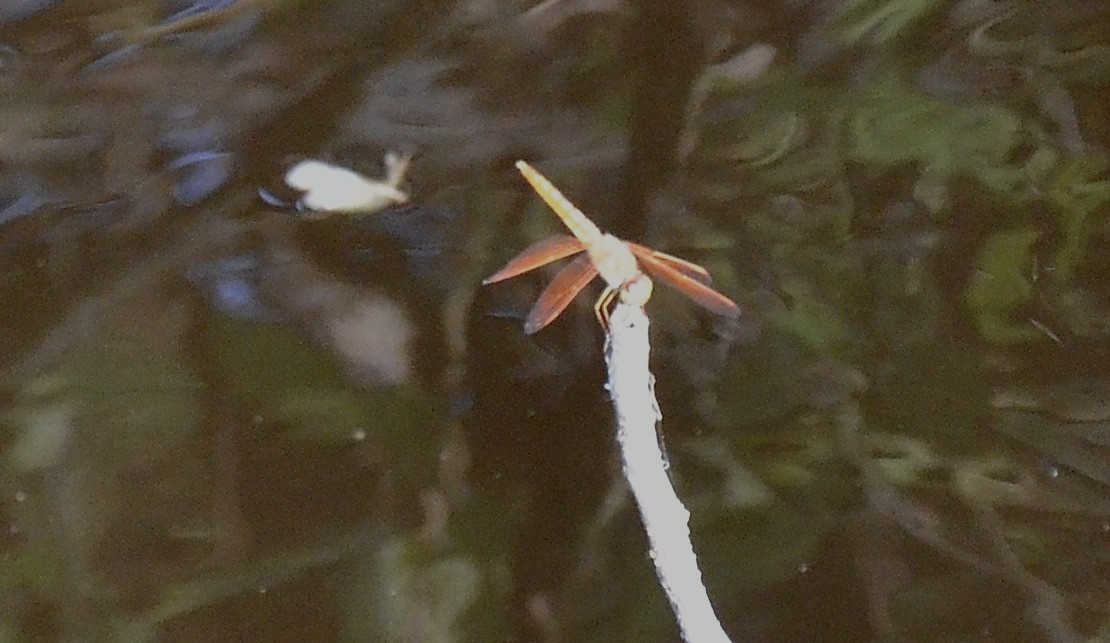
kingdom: Animalia
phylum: Arthropoda
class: Insecta
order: Odonata
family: Libellulidae
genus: Brachythemis
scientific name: Brachythemis contaminata
